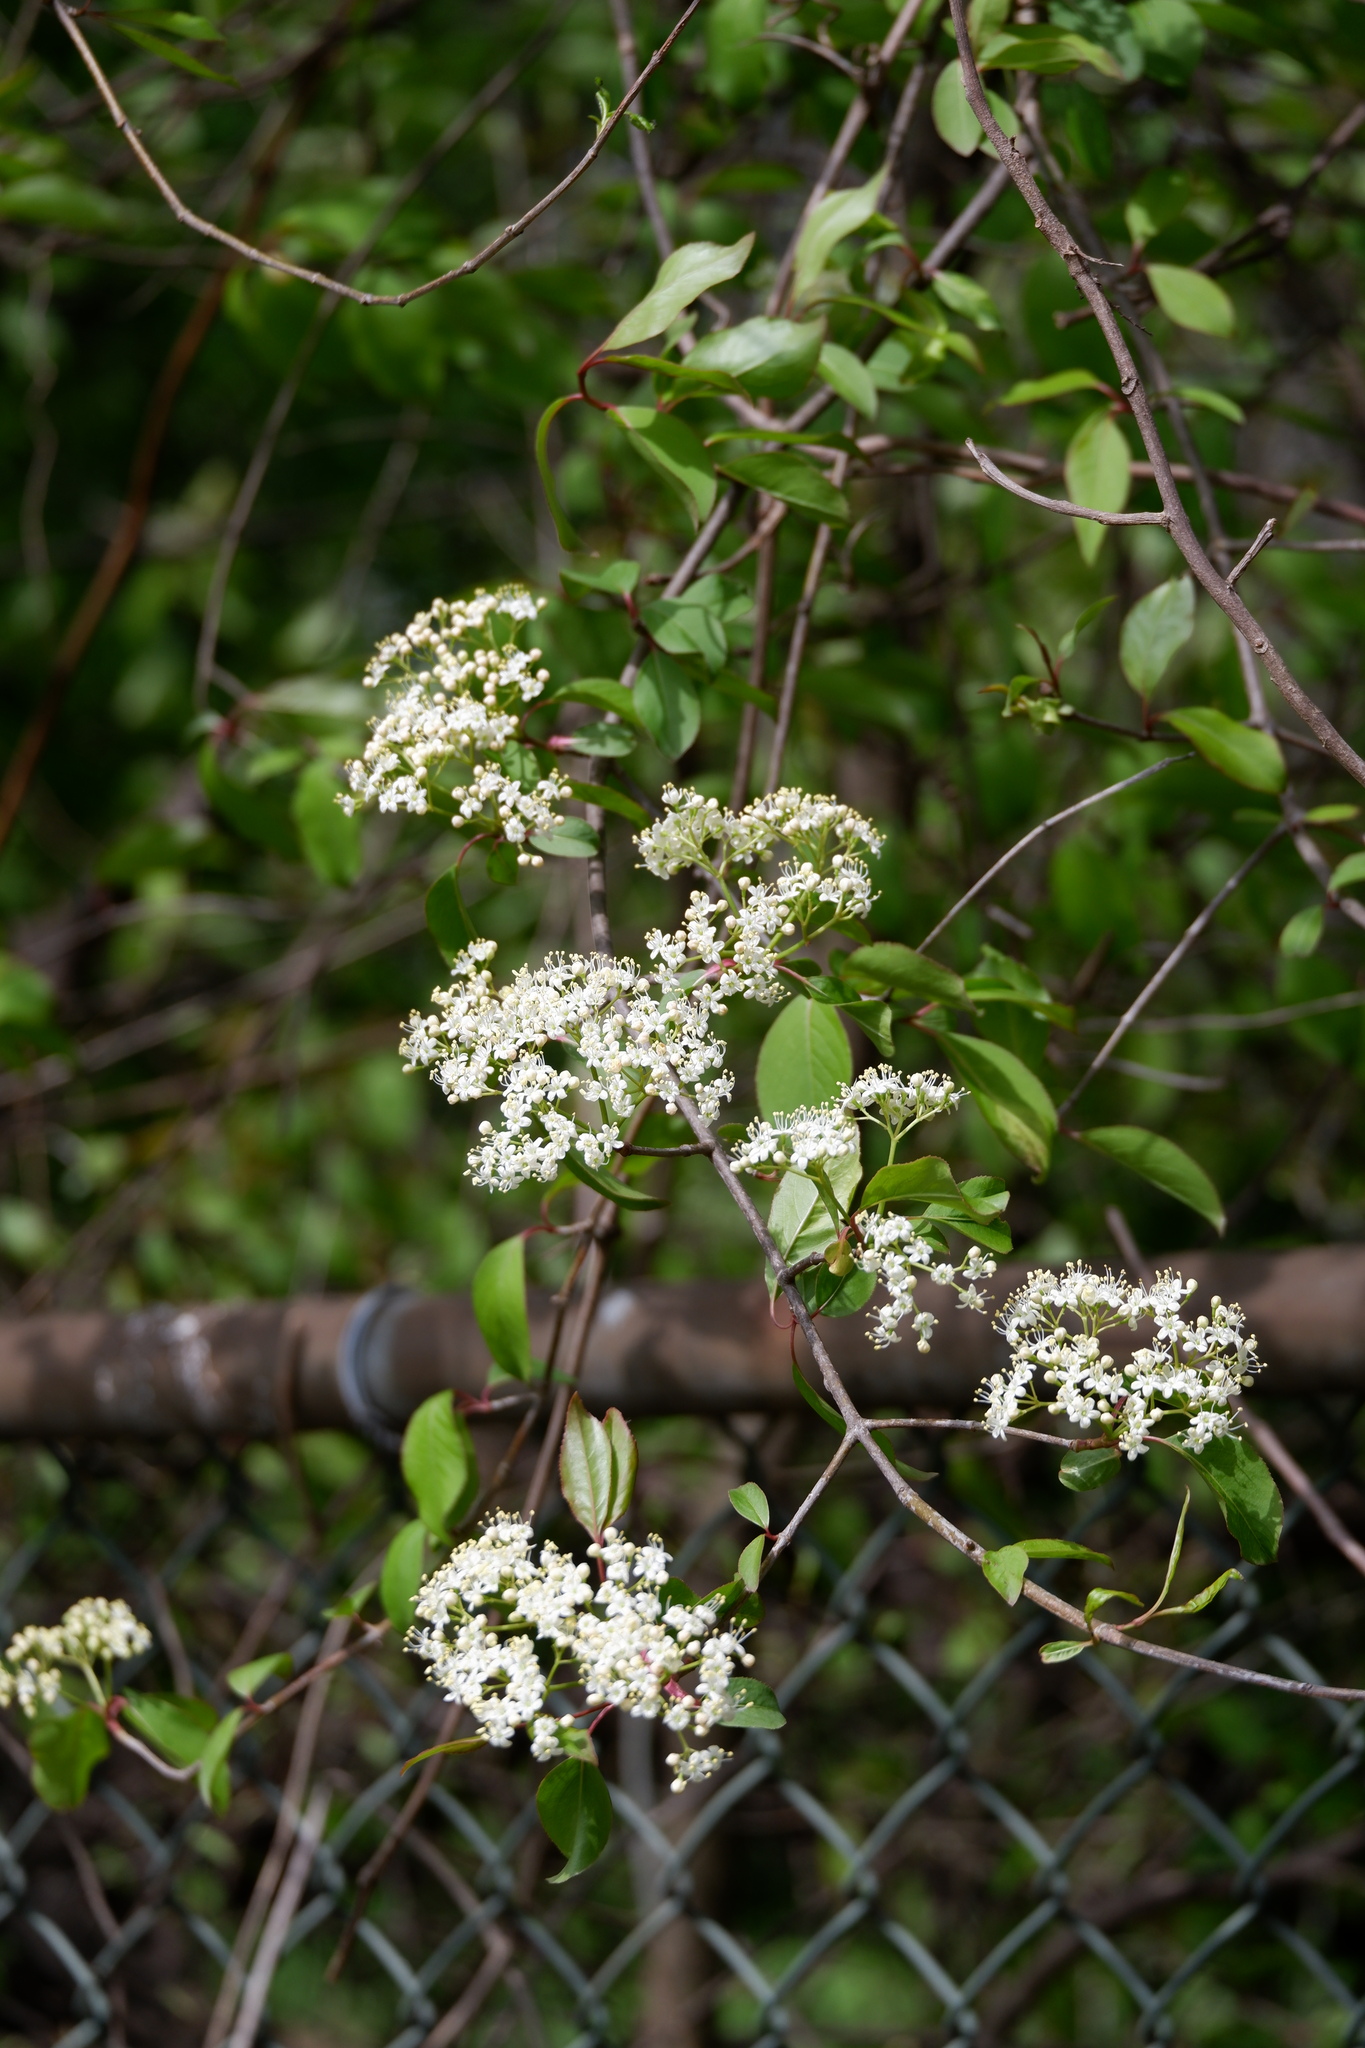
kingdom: Plantae
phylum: Tracheophyta
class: Magnoliopsida
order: Dipsacales
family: Viburnaceae
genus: Viburnum
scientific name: Viburnum prunifolium
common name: Black haw
